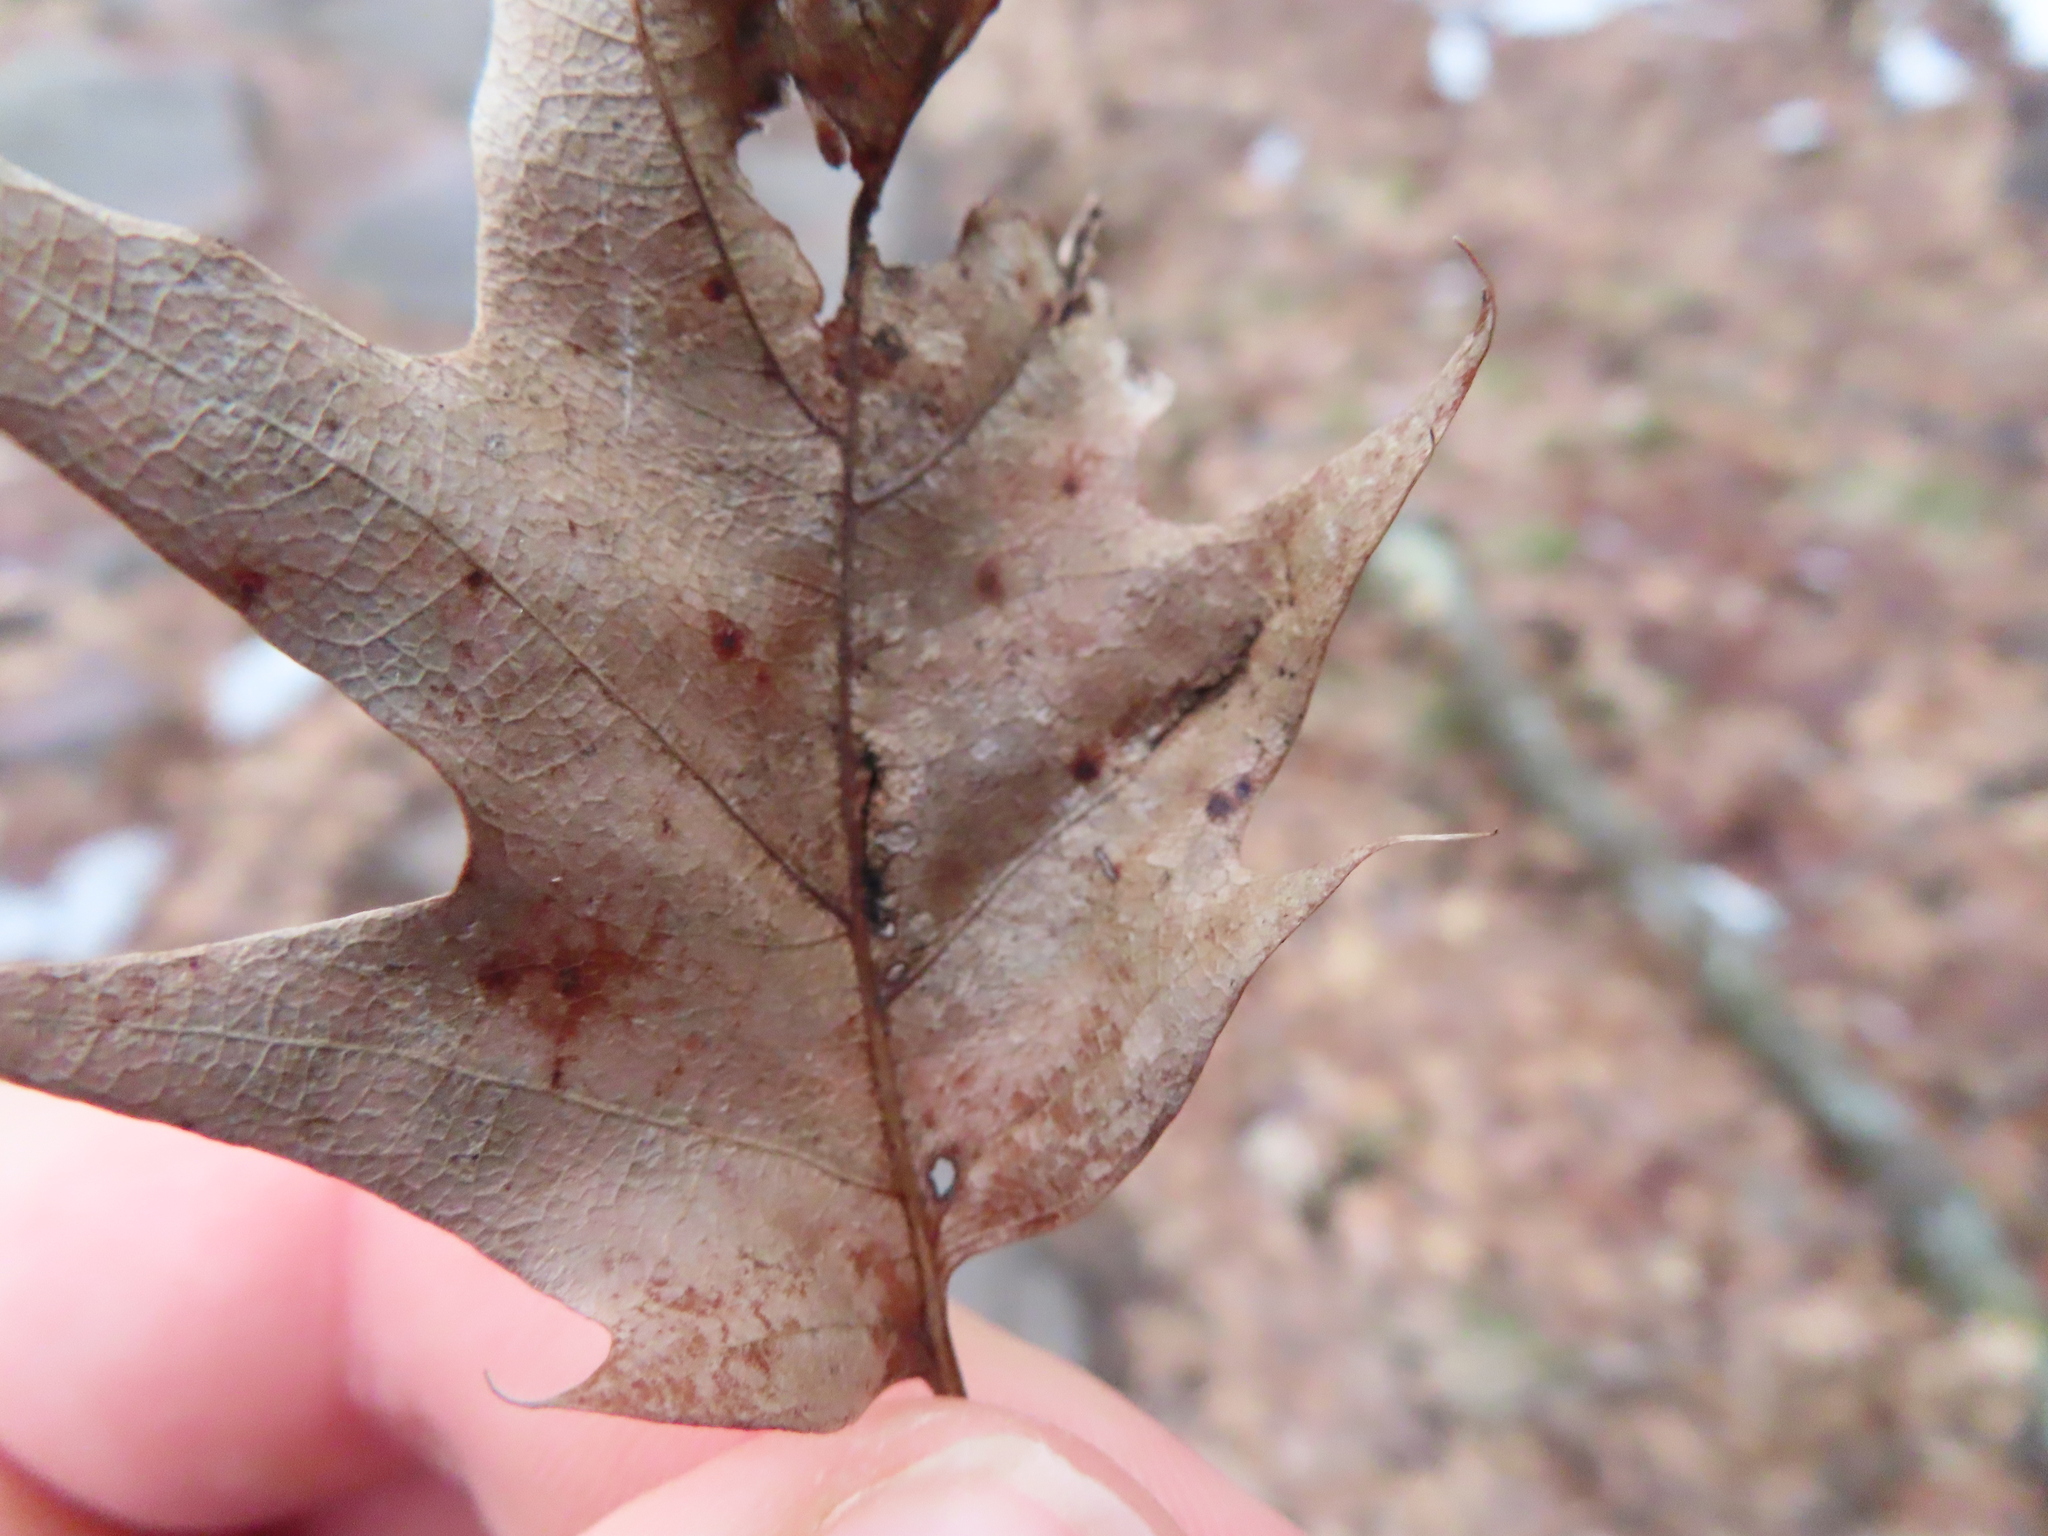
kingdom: Animalia
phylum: Arthropoda
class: Insecta
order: Diptera
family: Cecidomyiidae
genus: Macrodiplosis
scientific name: Macrodiplosis majalis
